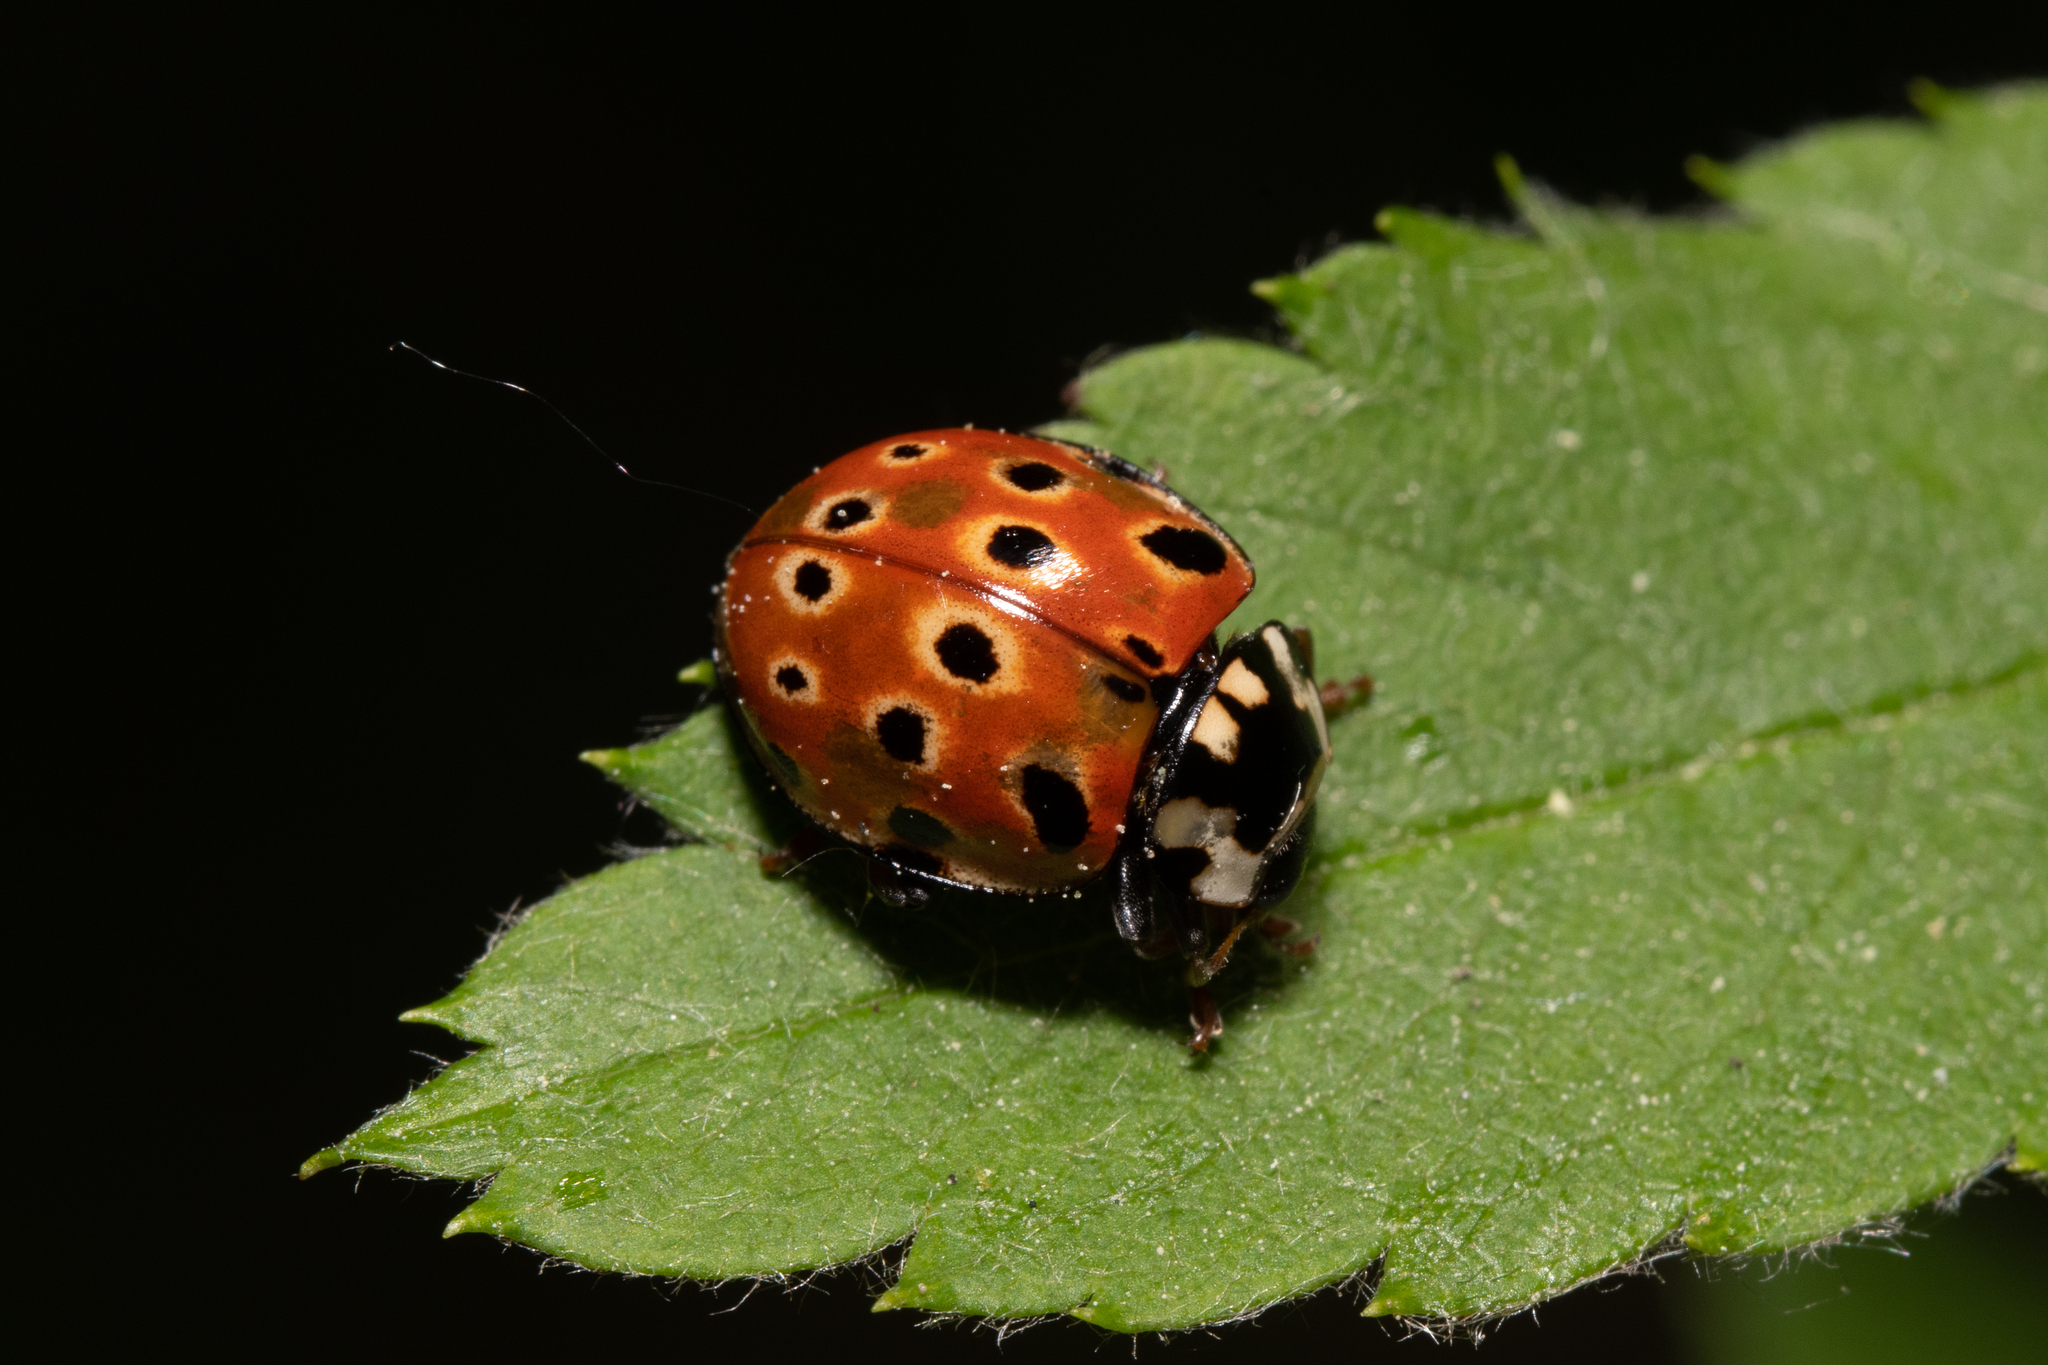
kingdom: Animalia
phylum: Arthropoda
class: Insecta
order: Coleoptera
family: Coccinellidae
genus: Anatis
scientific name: Anatis ocellata
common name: Eyed ladybird
